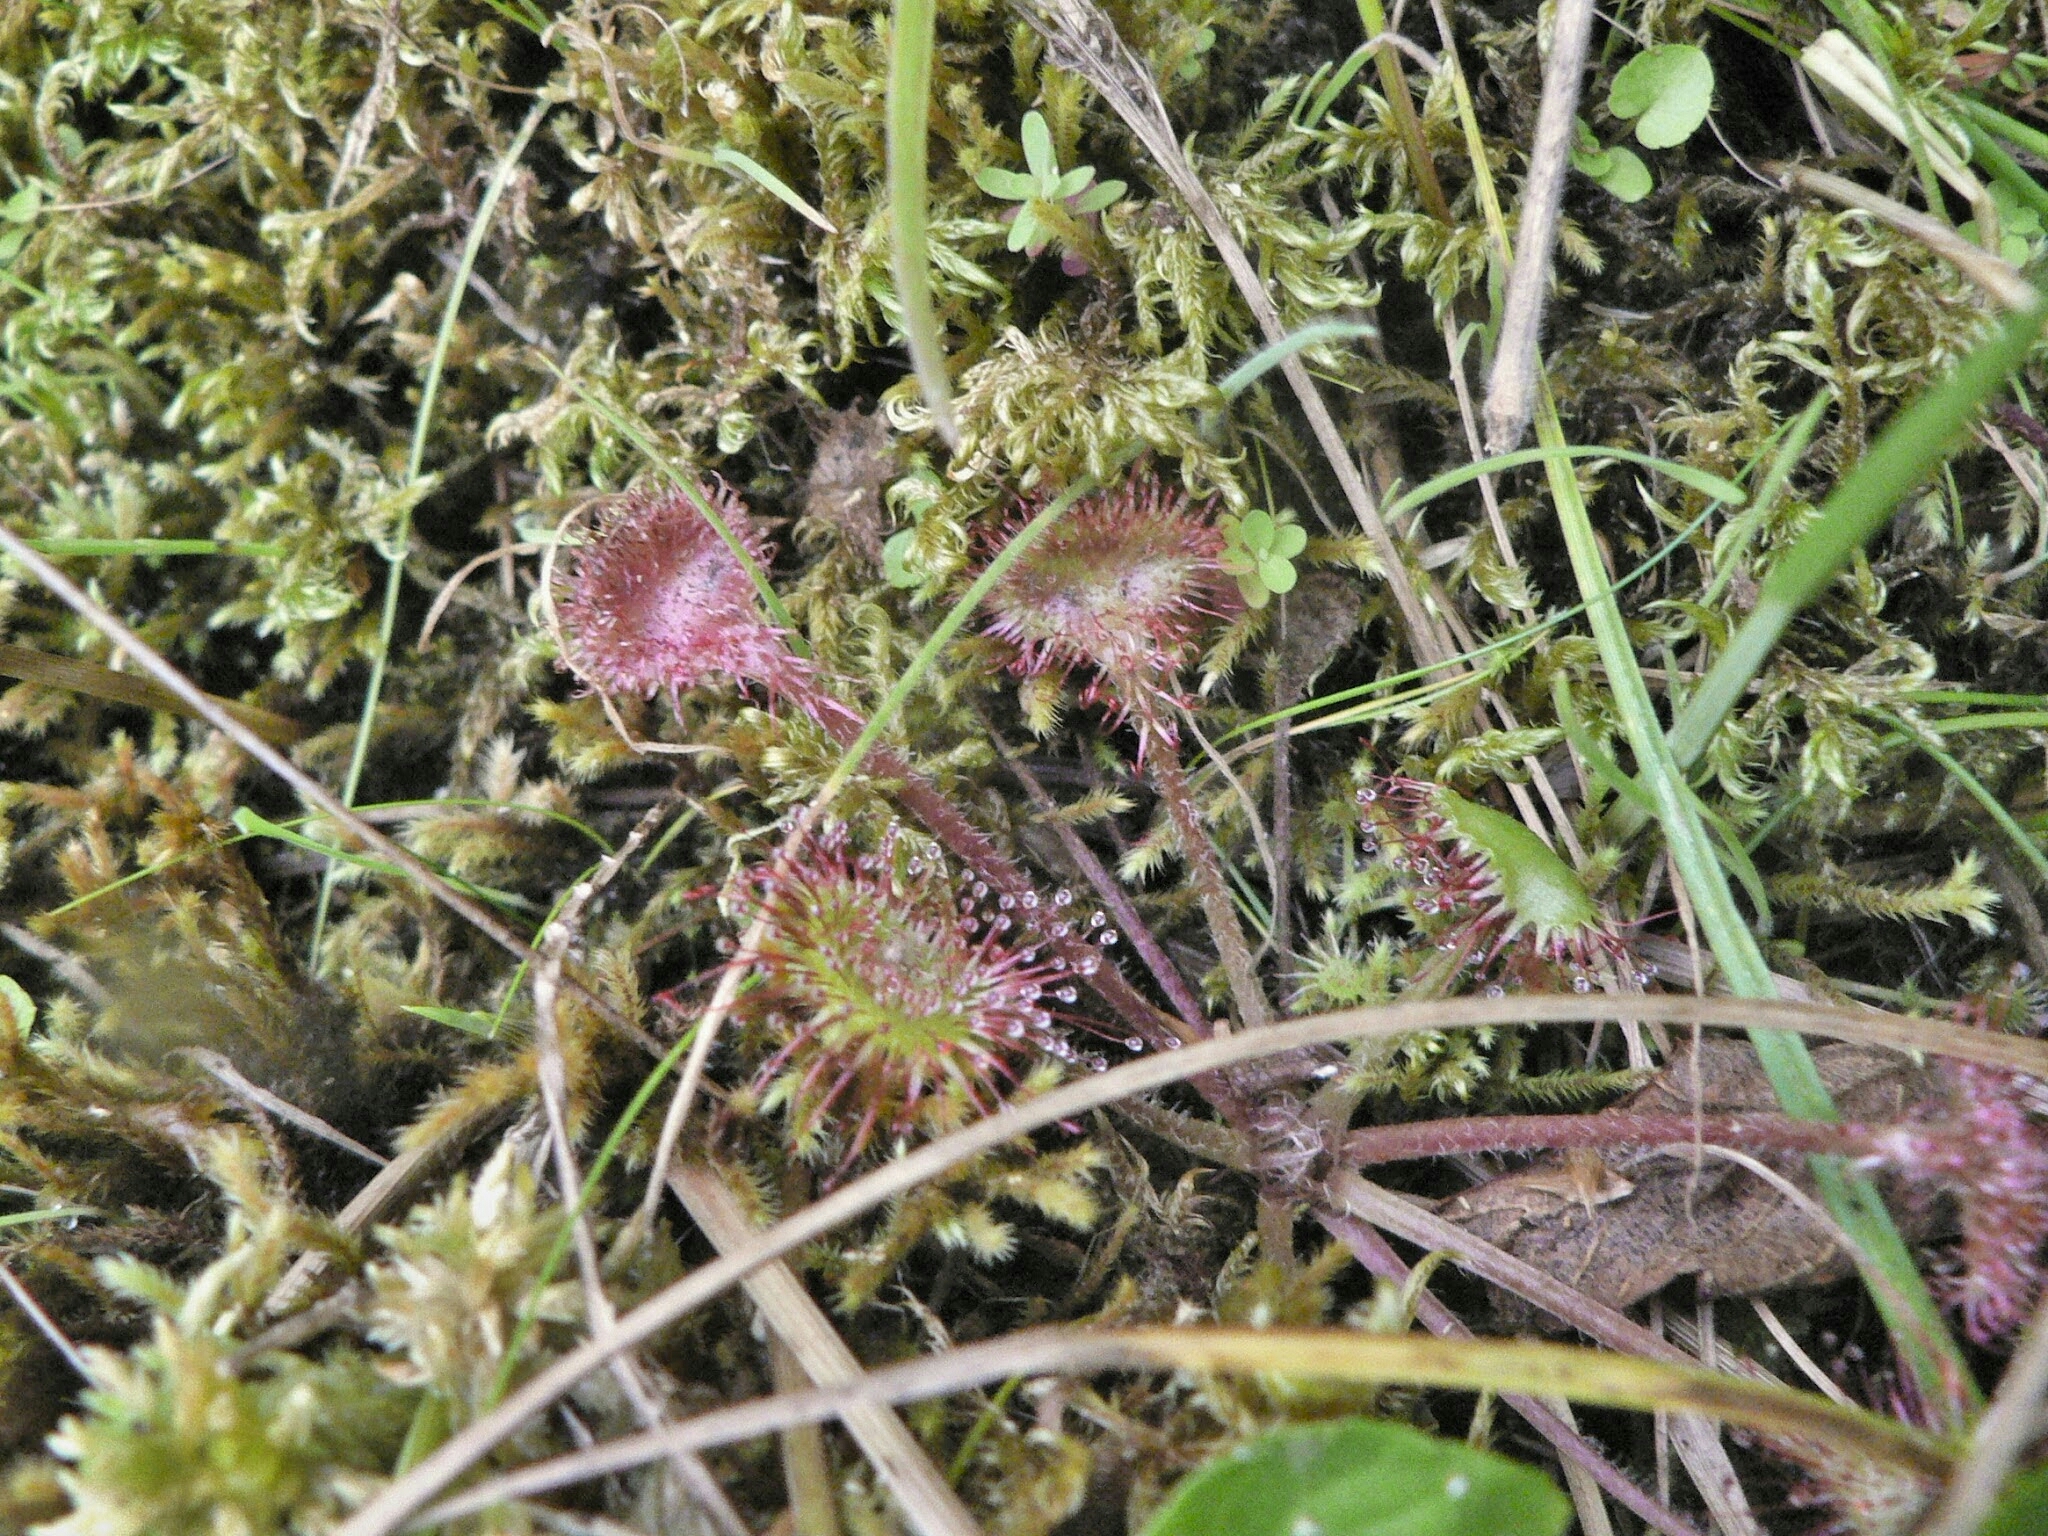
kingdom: Plantae
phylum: Tracheophyta
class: Magnoliopsida
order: Caryophyllales
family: Droseraceae
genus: Drosera
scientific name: Drosera rotundifolia
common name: Round-leaved sundew
